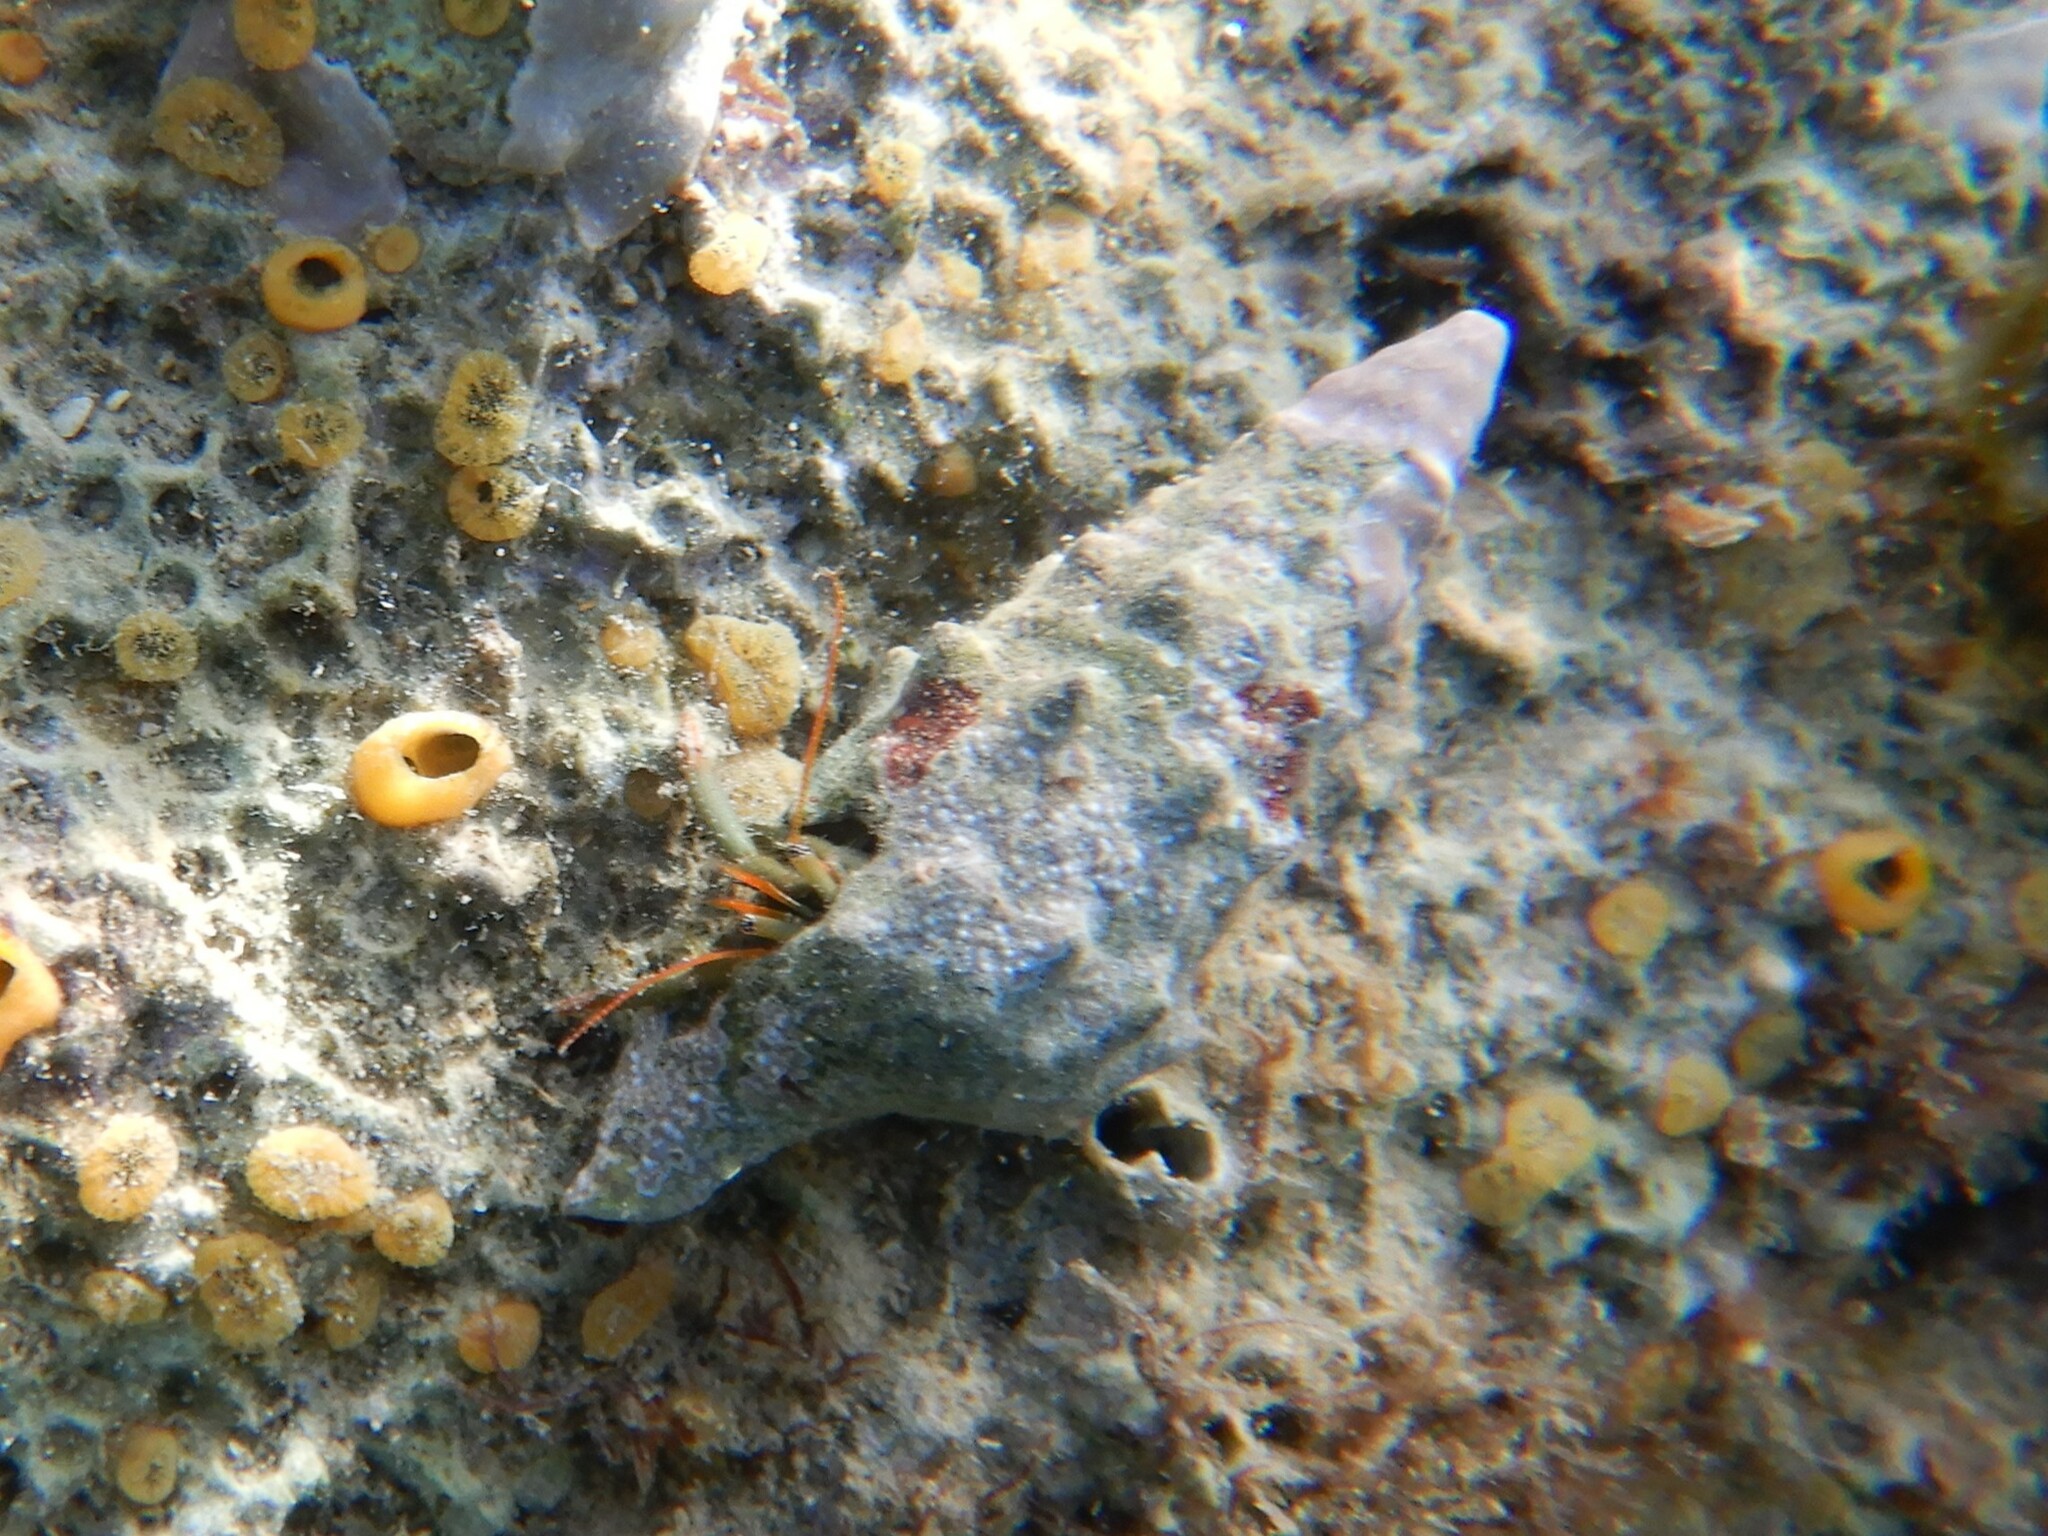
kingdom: Animalia
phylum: Arthropoda
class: Malacostraca
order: Decapoda
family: Diogenidae
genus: Clibanarius
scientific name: Clibanarius erythropus
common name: Hermit crab
